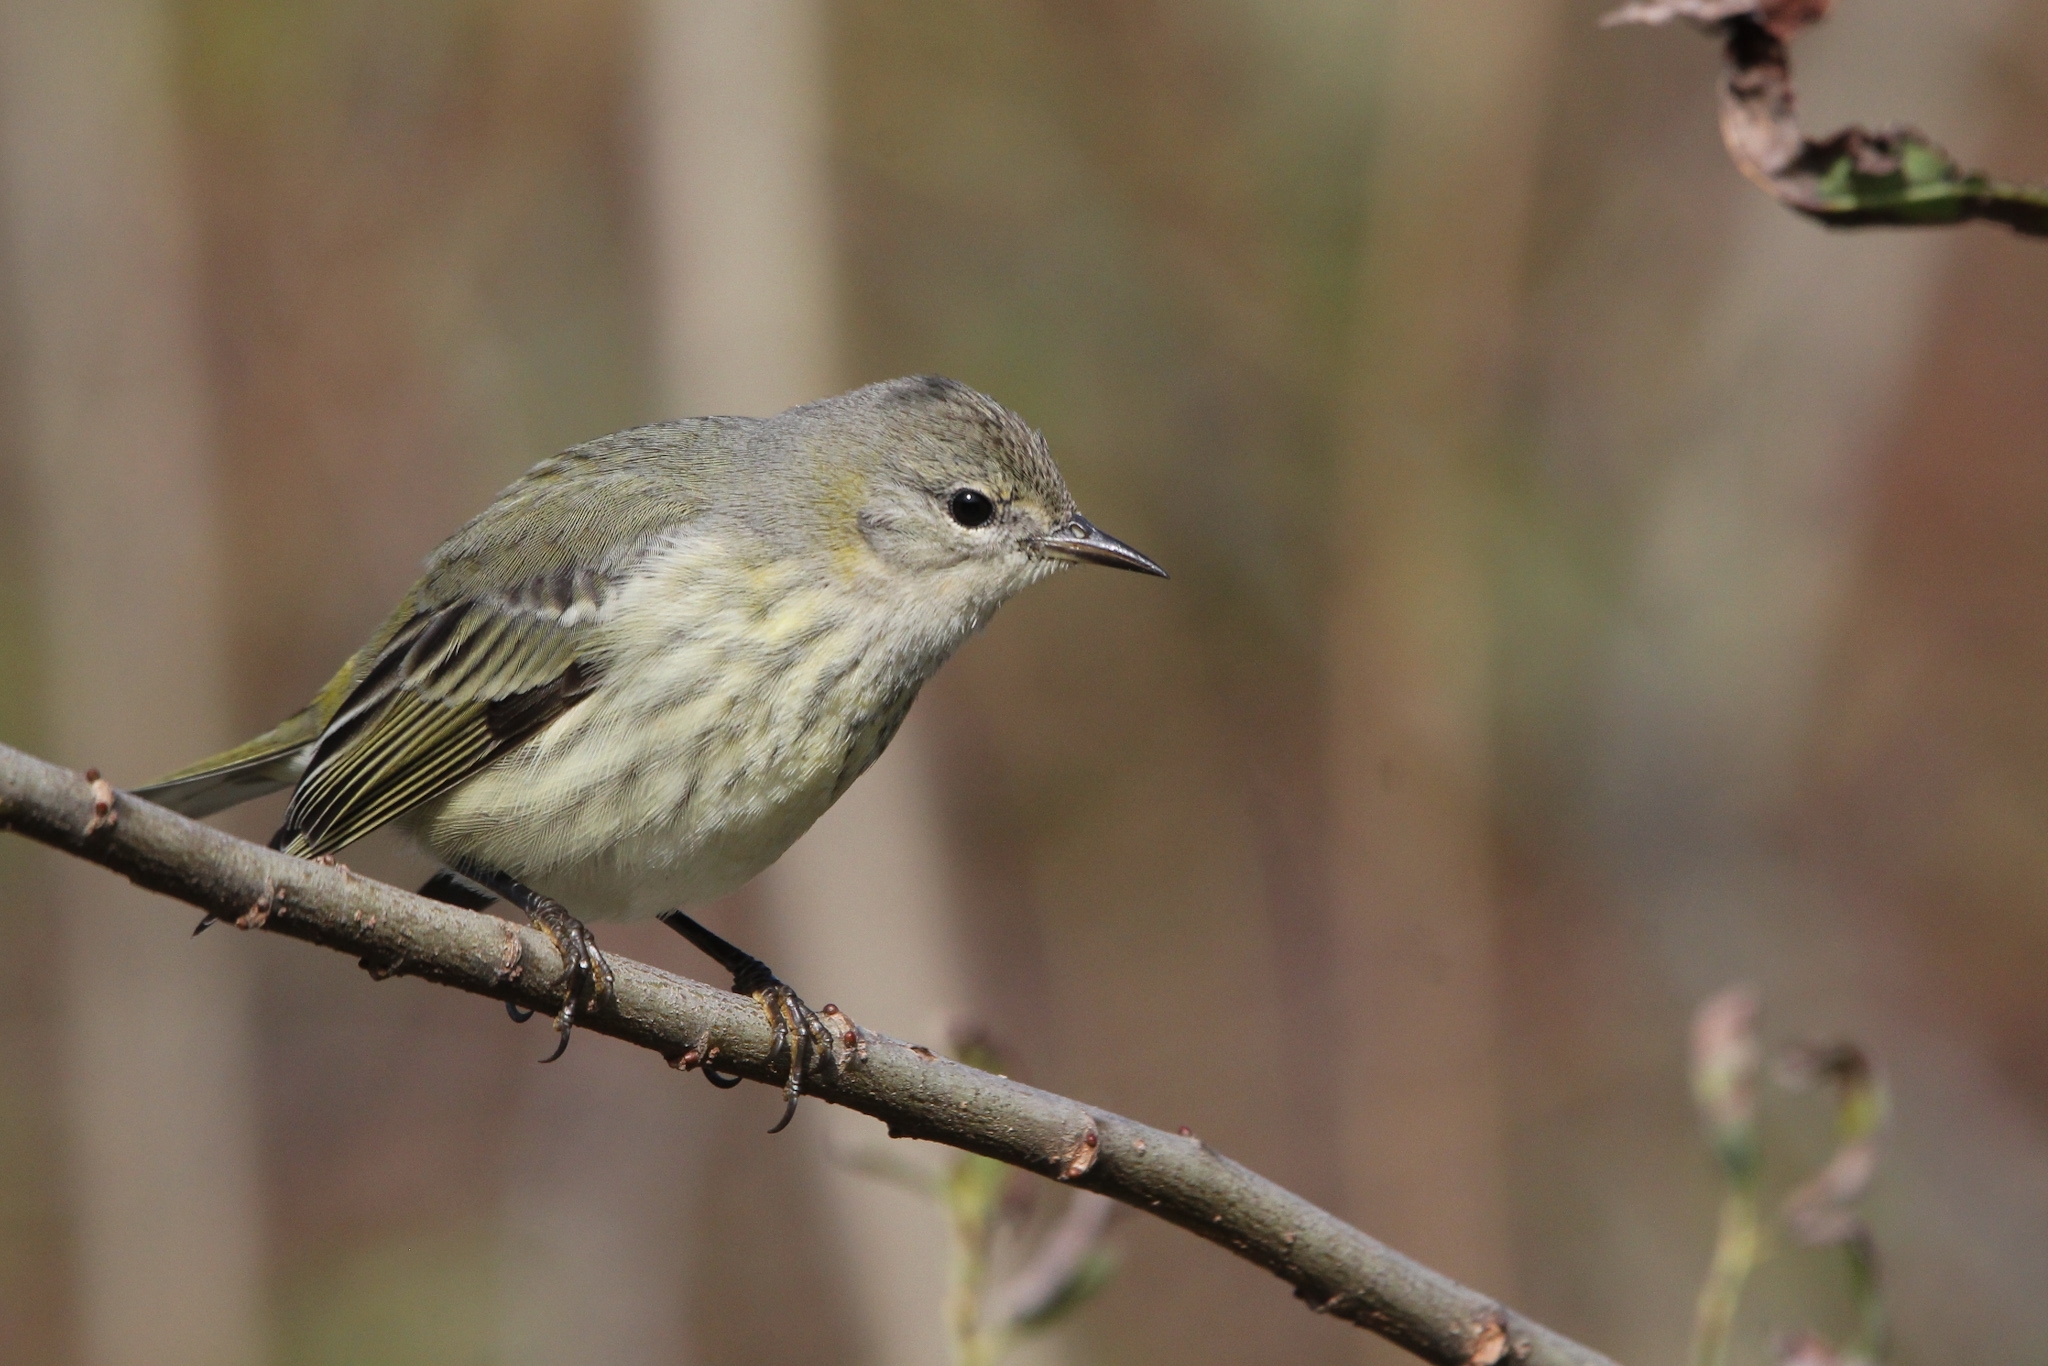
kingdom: Animalia
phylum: Chordata
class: Aves
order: Passeriformes
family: Parulidae
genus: Setophaga
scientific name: Setophaga tigrina
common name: Cape may warbler
